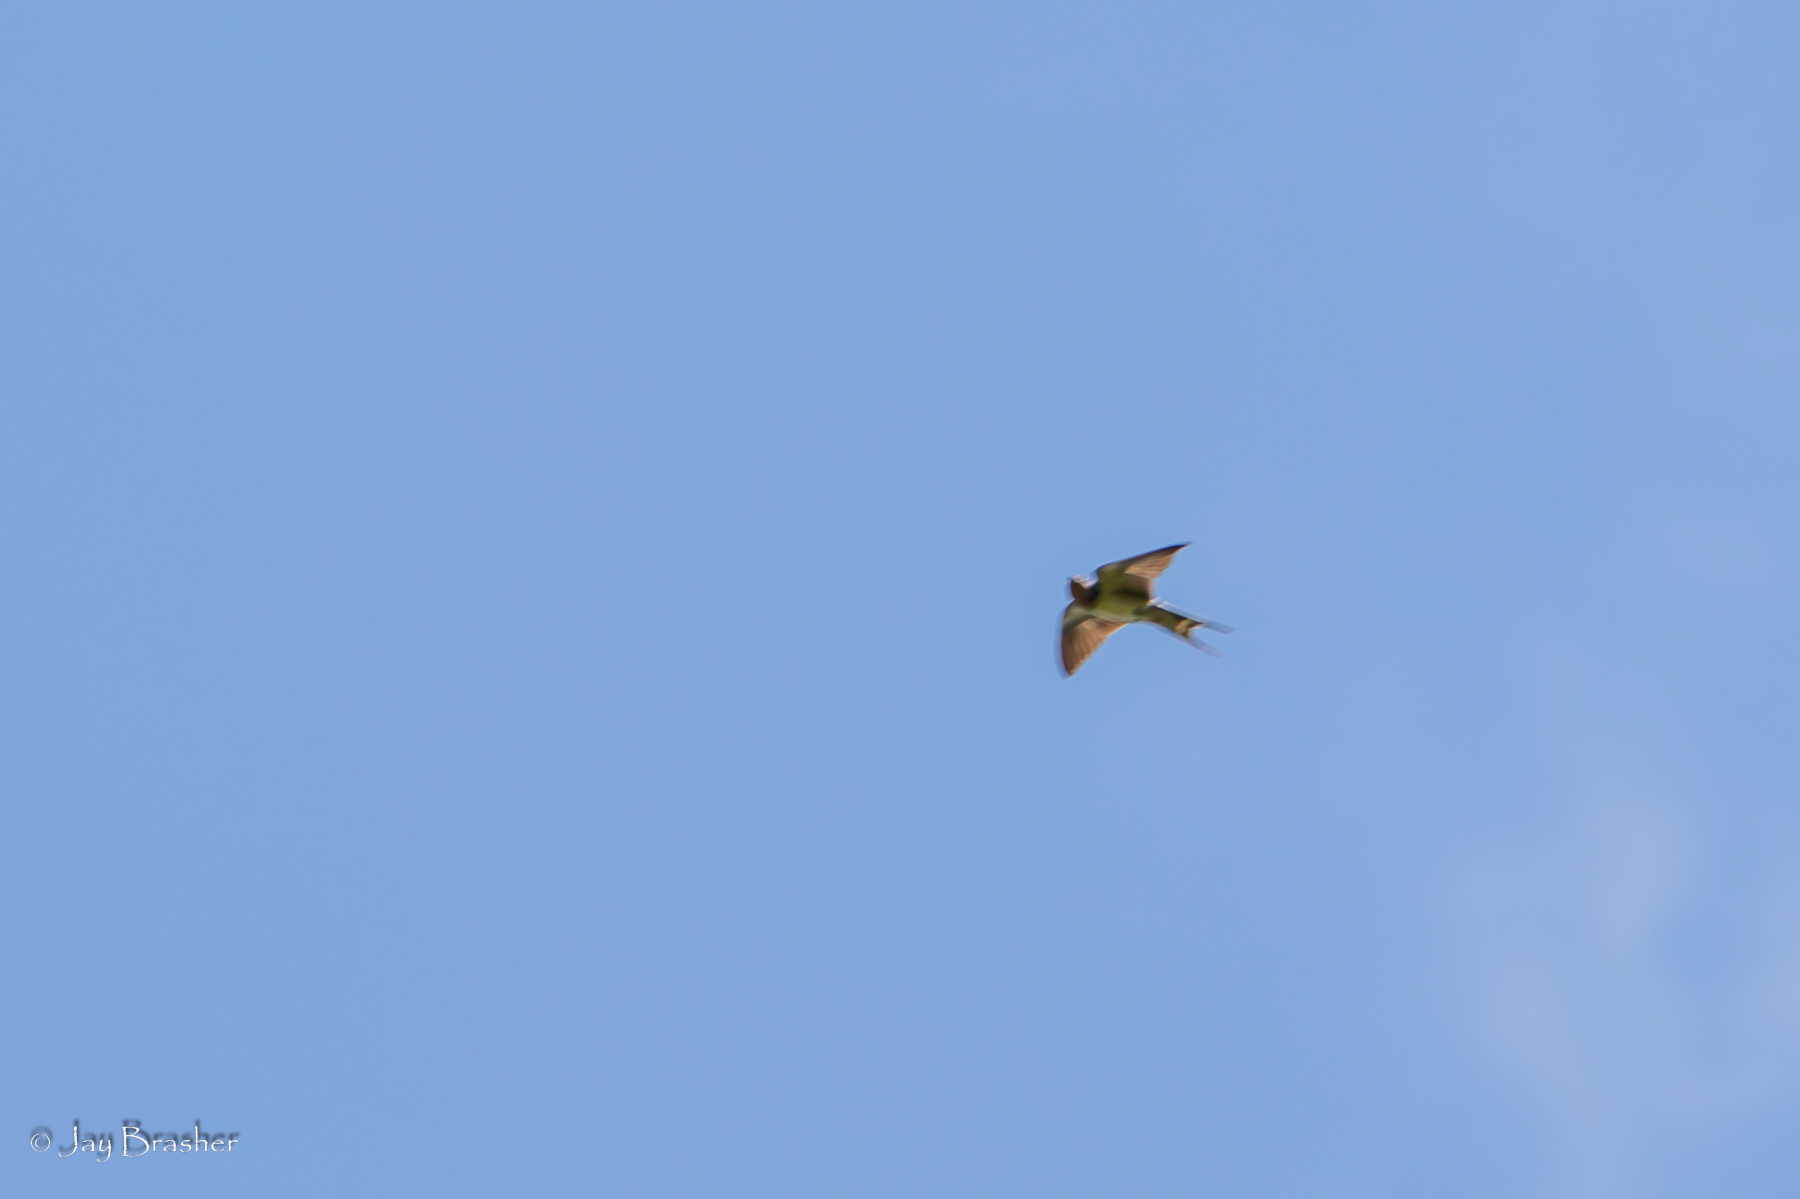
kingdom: Animalia
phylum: Chordata
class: Aves
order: Passeriformes
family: Hirundinidae
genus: Hirundo
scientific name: Hirundo rustica
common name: Barn swallow
